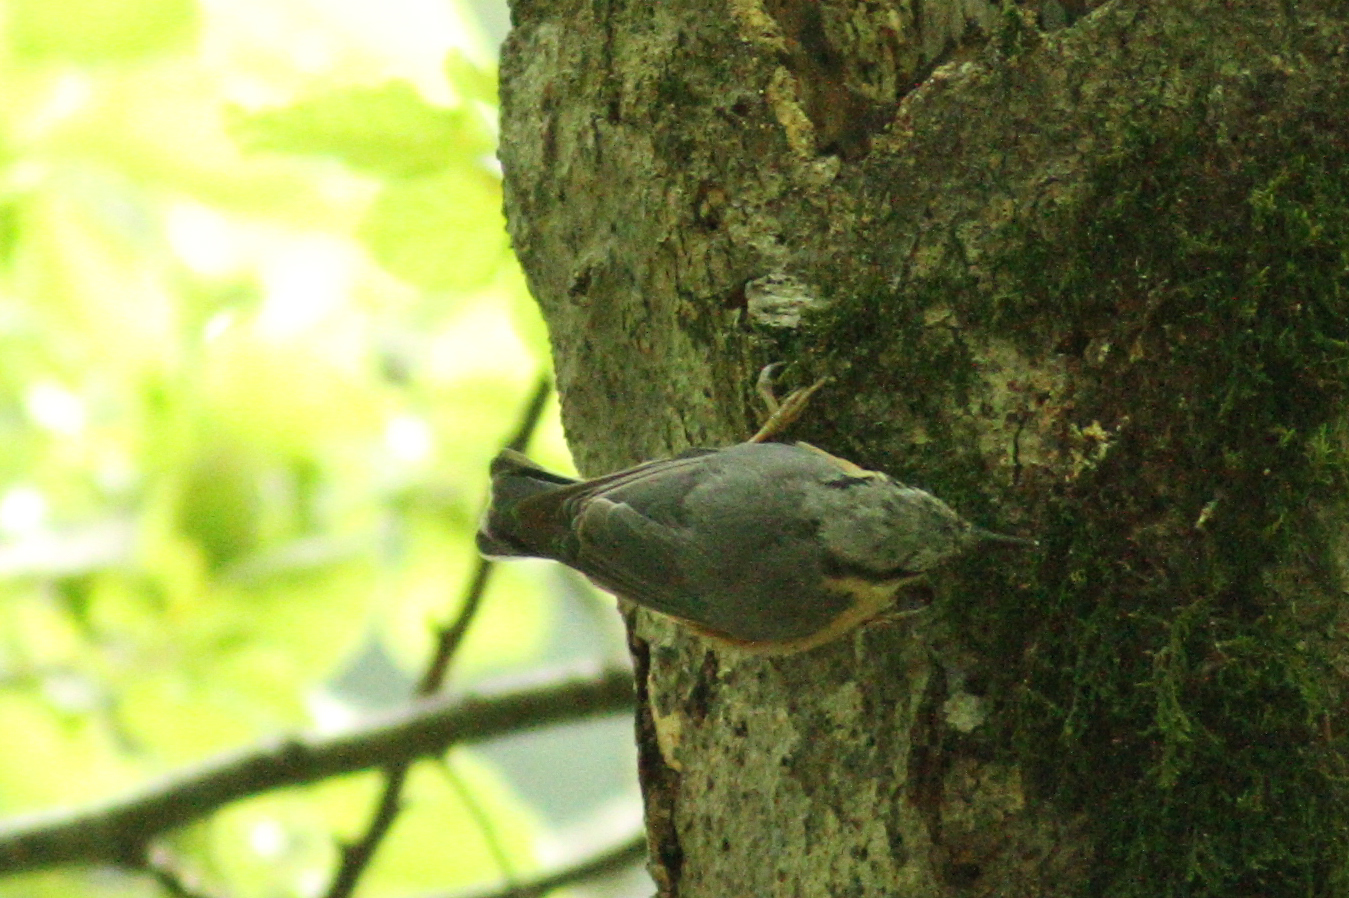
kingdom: Animalia
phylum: Chordata
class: Aves
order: Passeriformes
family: Sittidae
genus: Sitta
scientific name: Sitta europaea
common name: Eurasian nuthatch
